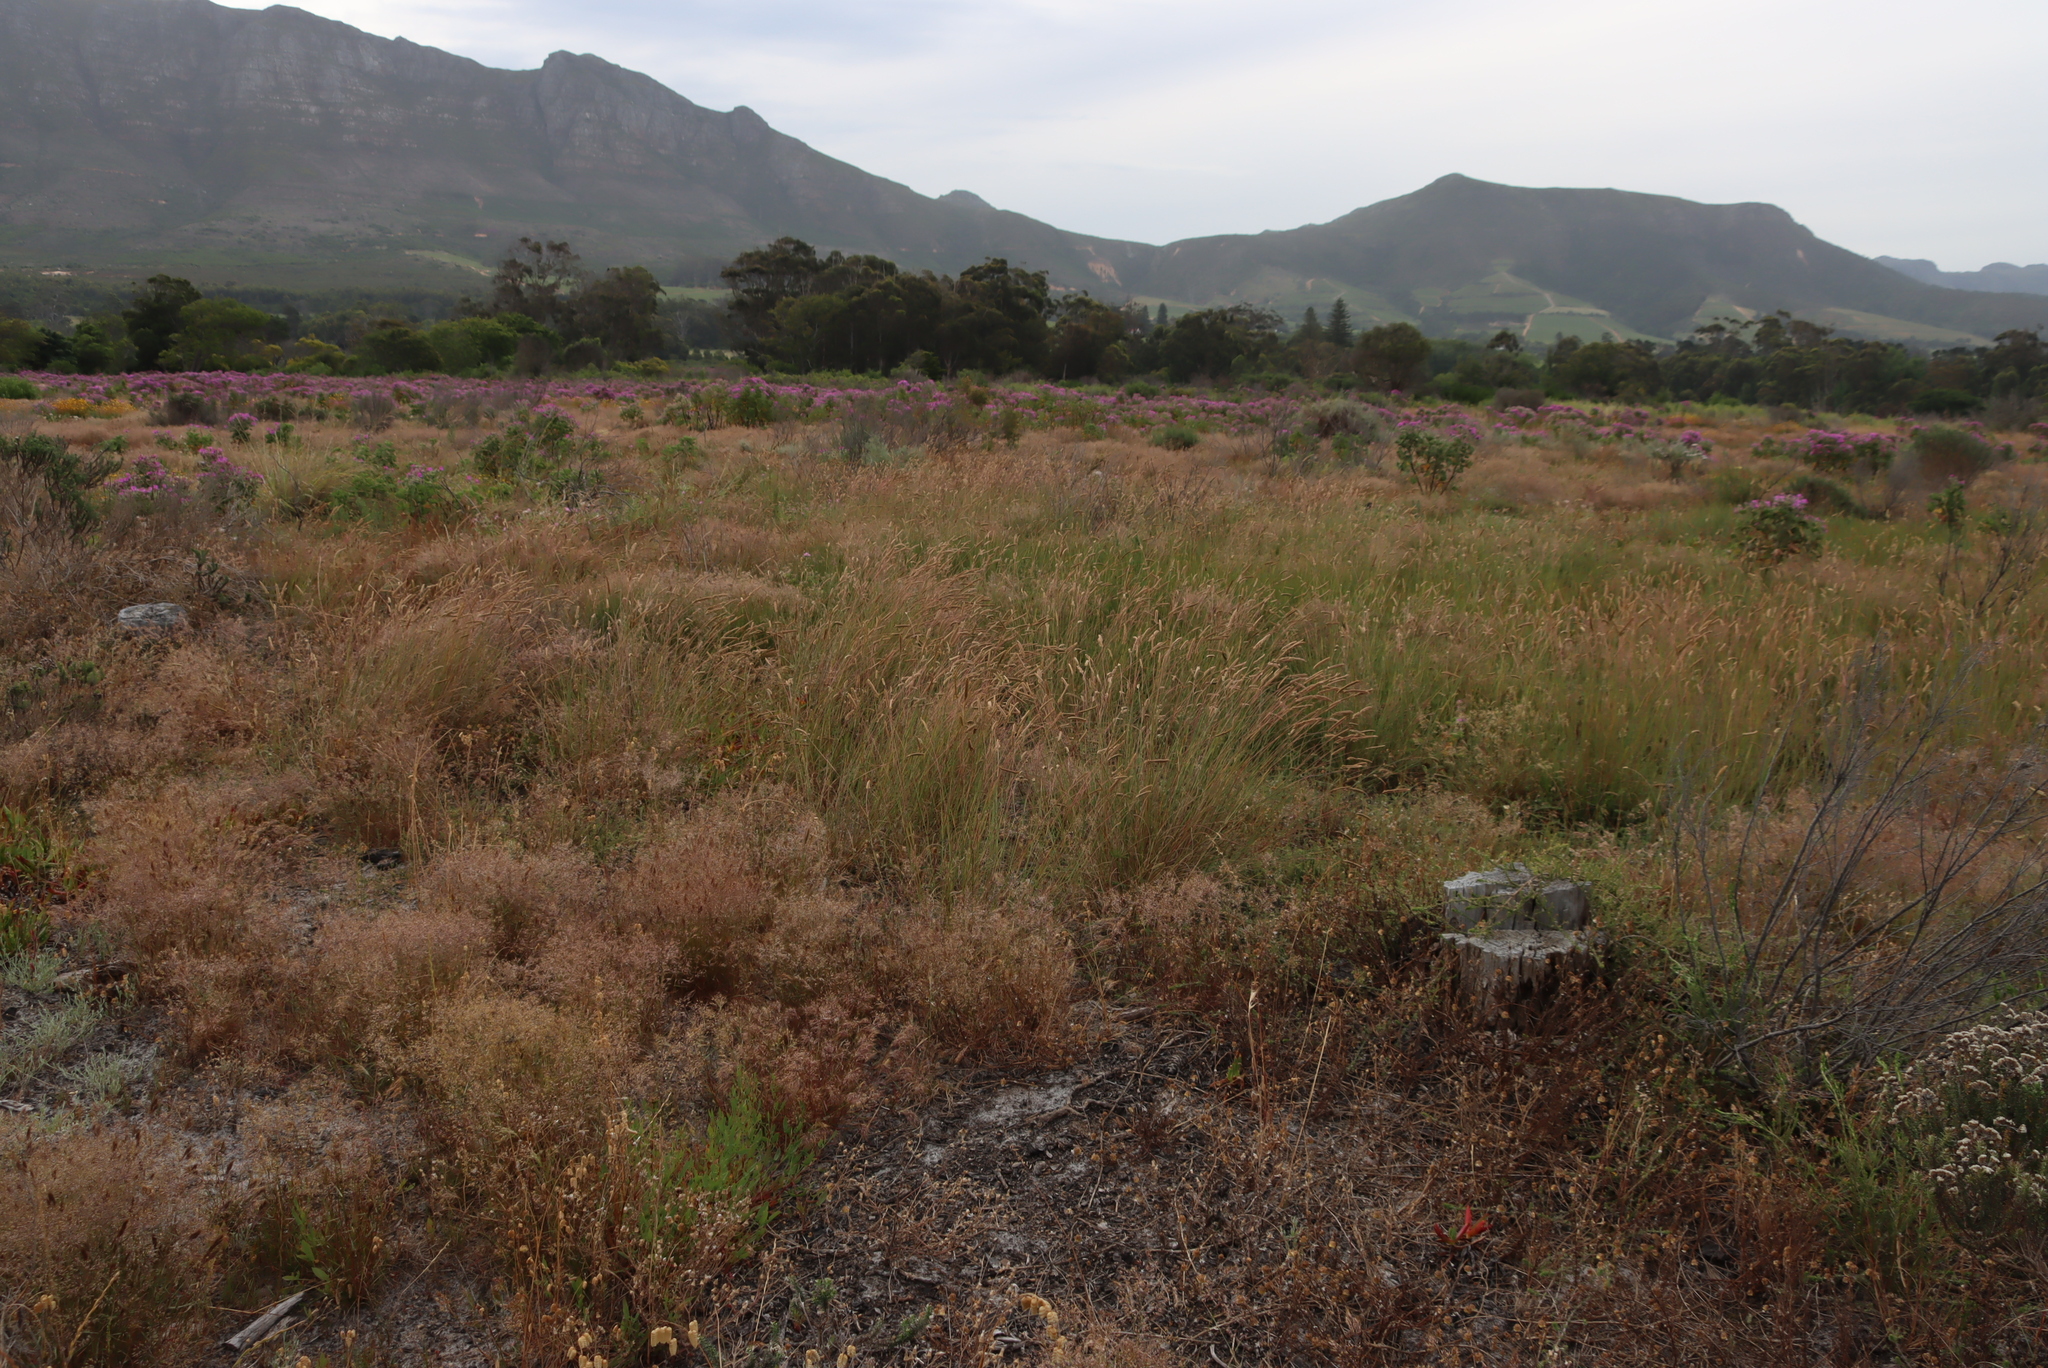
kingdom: Plantae
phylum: Tracheophyta
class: Liliopsida
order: Poales
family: Poaceae
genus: Tribolium
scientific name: Tribolium uniolae
